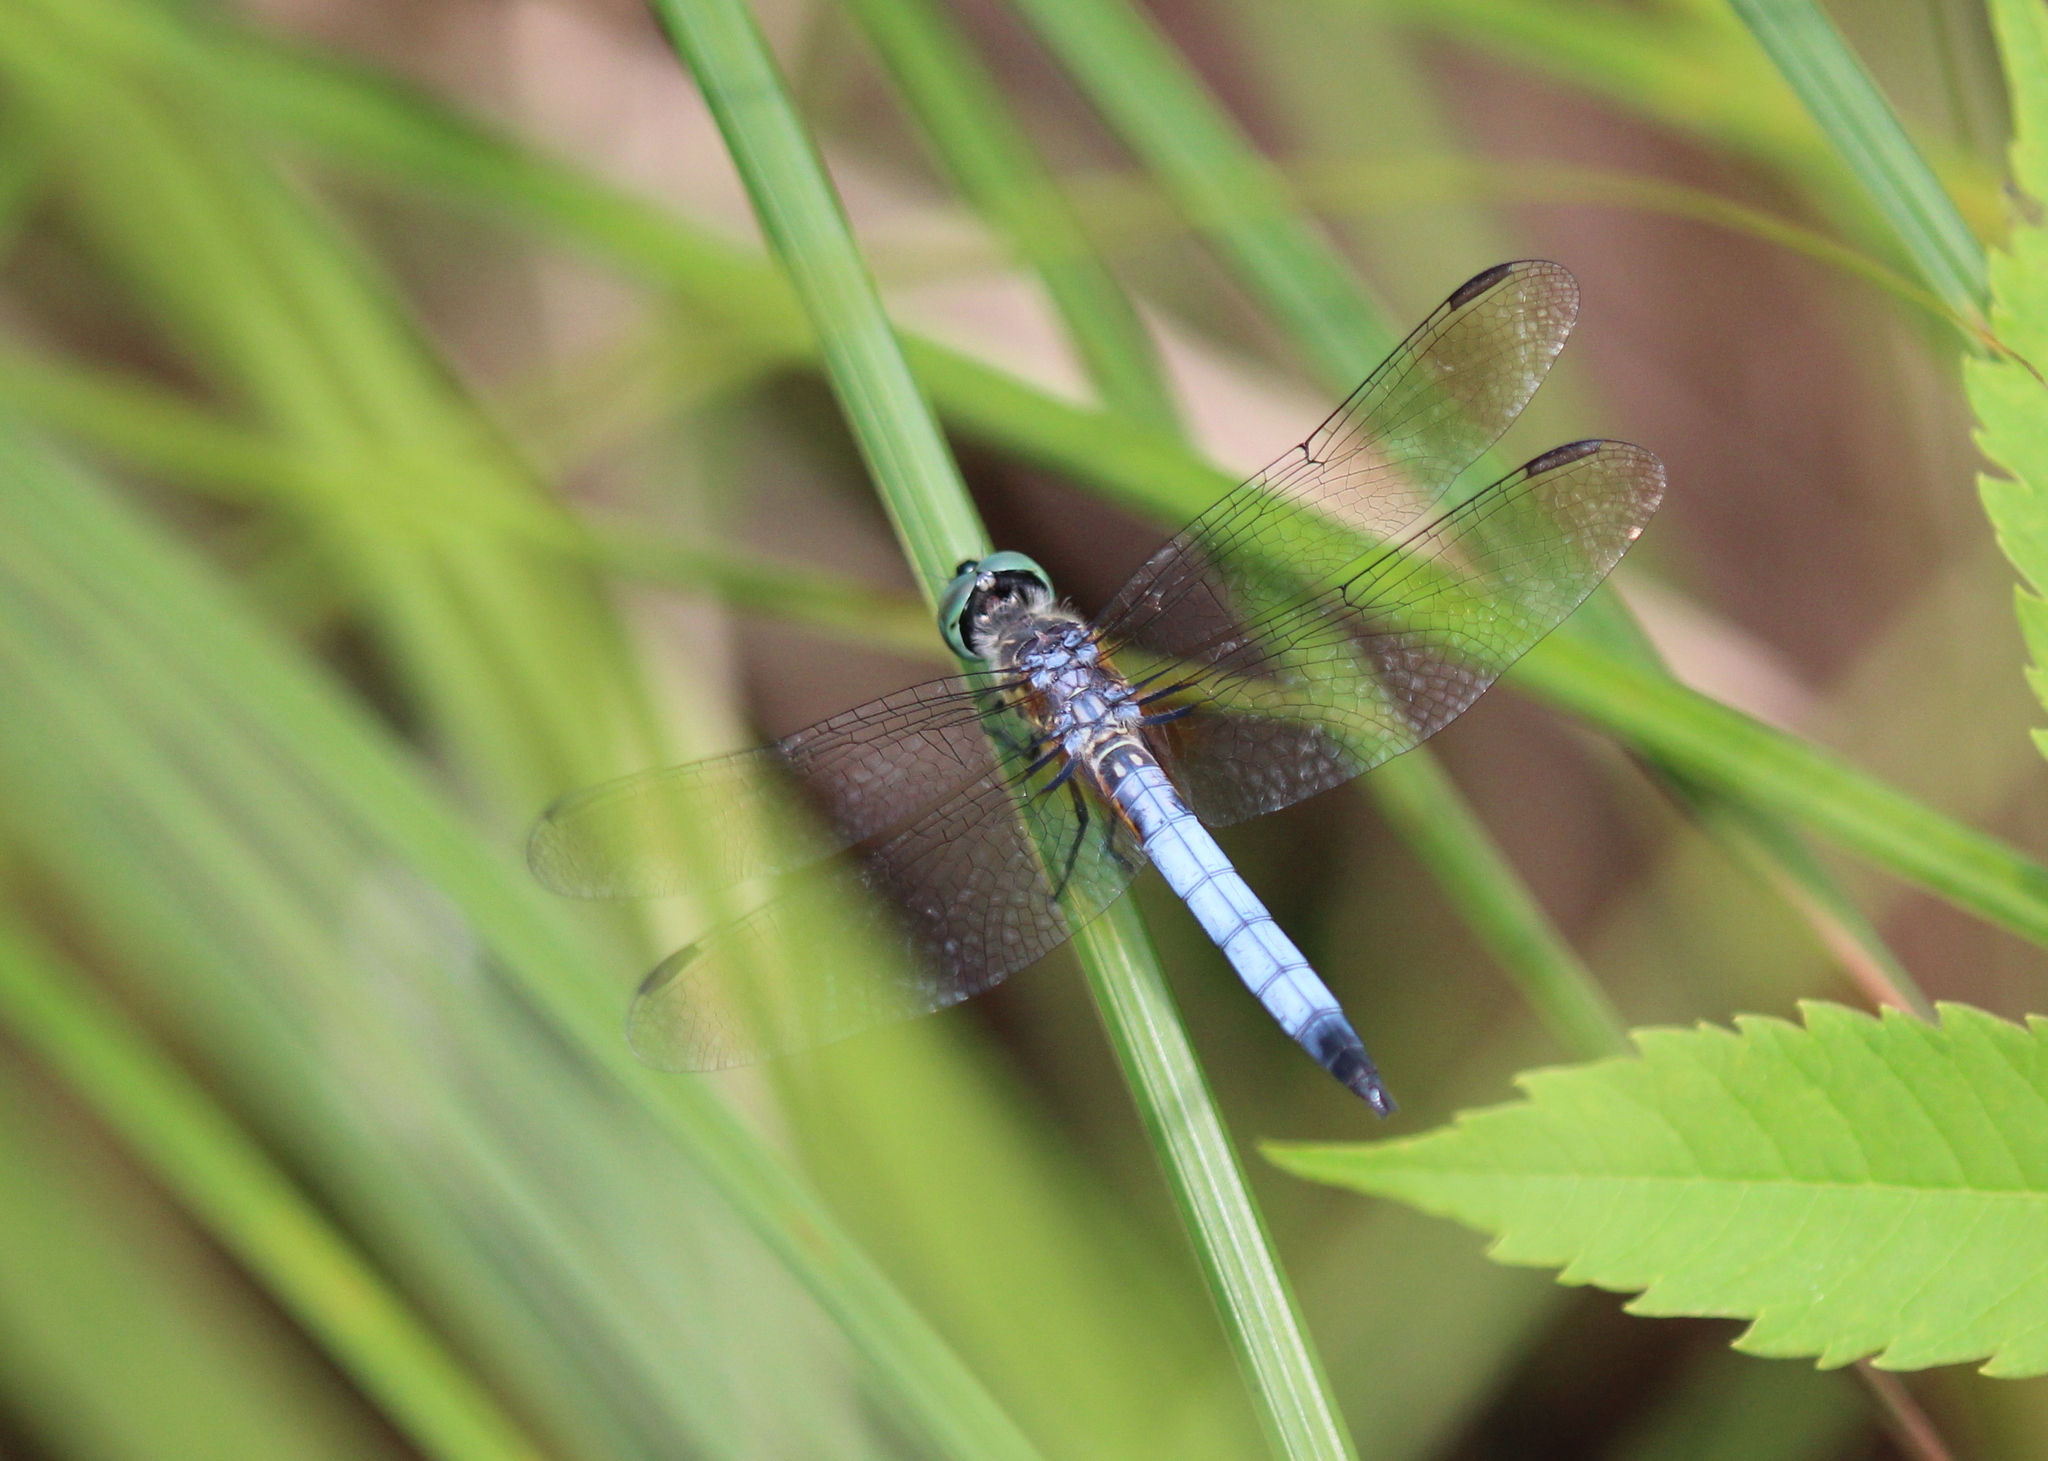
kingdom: Animalia
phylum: Arthropoda
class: Insecta
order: Odonata
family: Libellulidae
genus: Pachydiplax
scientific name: Pachydiplax longipennis
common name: Blue dasher
